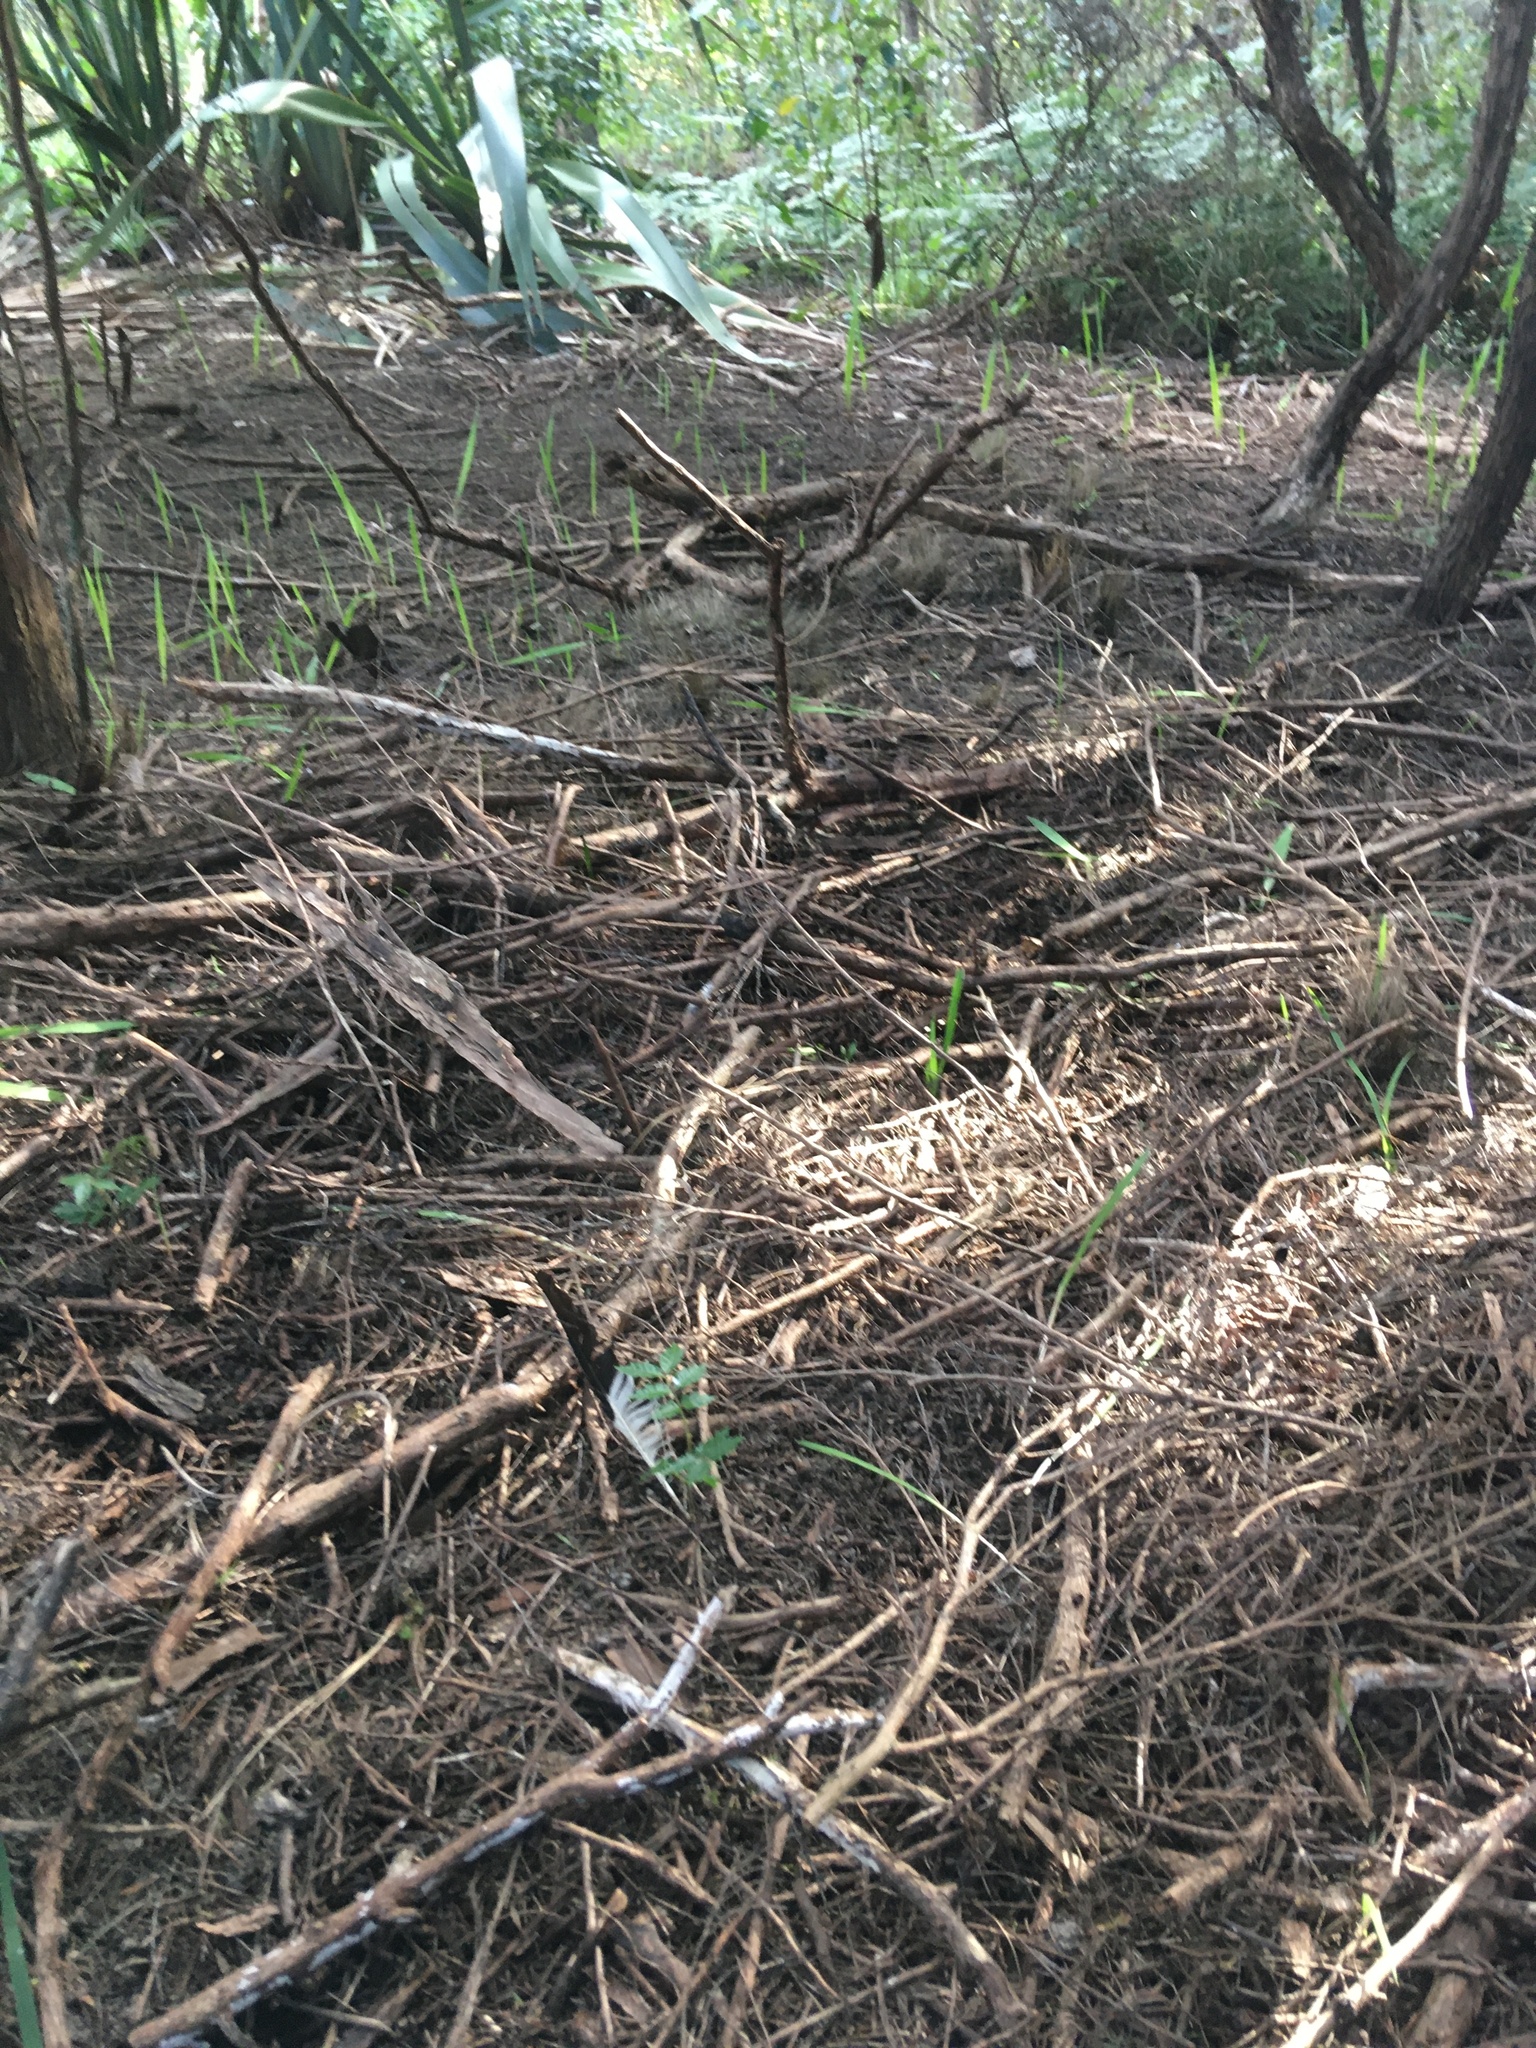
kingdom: Plantae
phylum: Tracheophyta
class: Magnoliopsida
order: Sapindales
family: Sapindaceae
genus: Alectryon
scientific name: Alectryon excelsus
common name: Three kings titoki
